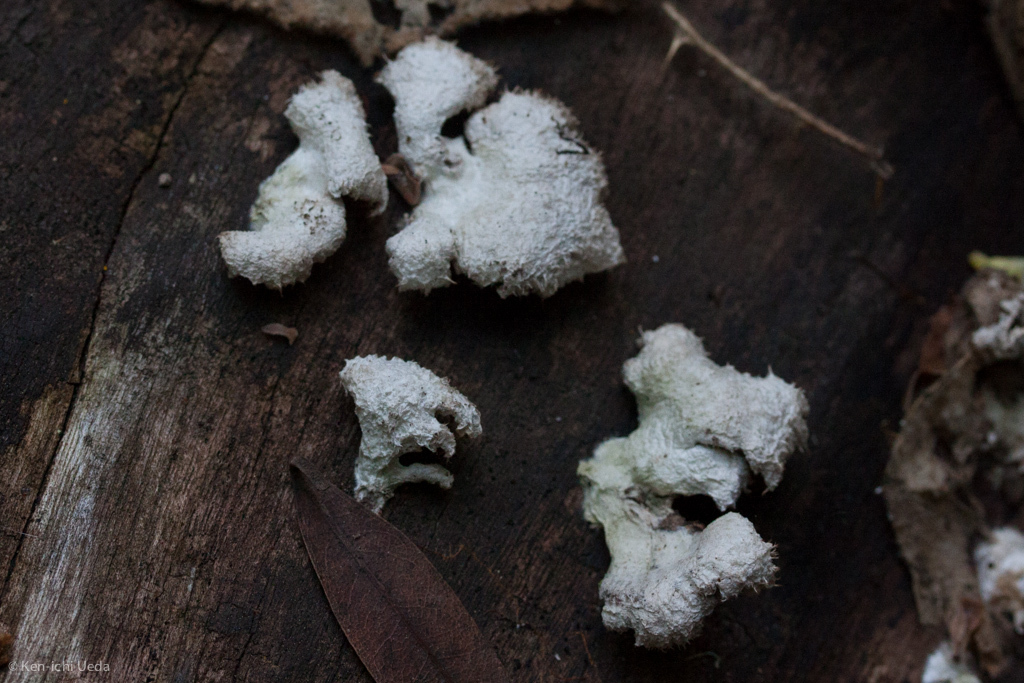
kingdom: Fungi
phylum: Basidiomycota
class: Agaricomycetes
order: Agaricales
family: Schizophyllaceae
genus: Schizophyllum
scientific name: Schizophyllum commune
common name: Common porecrust
